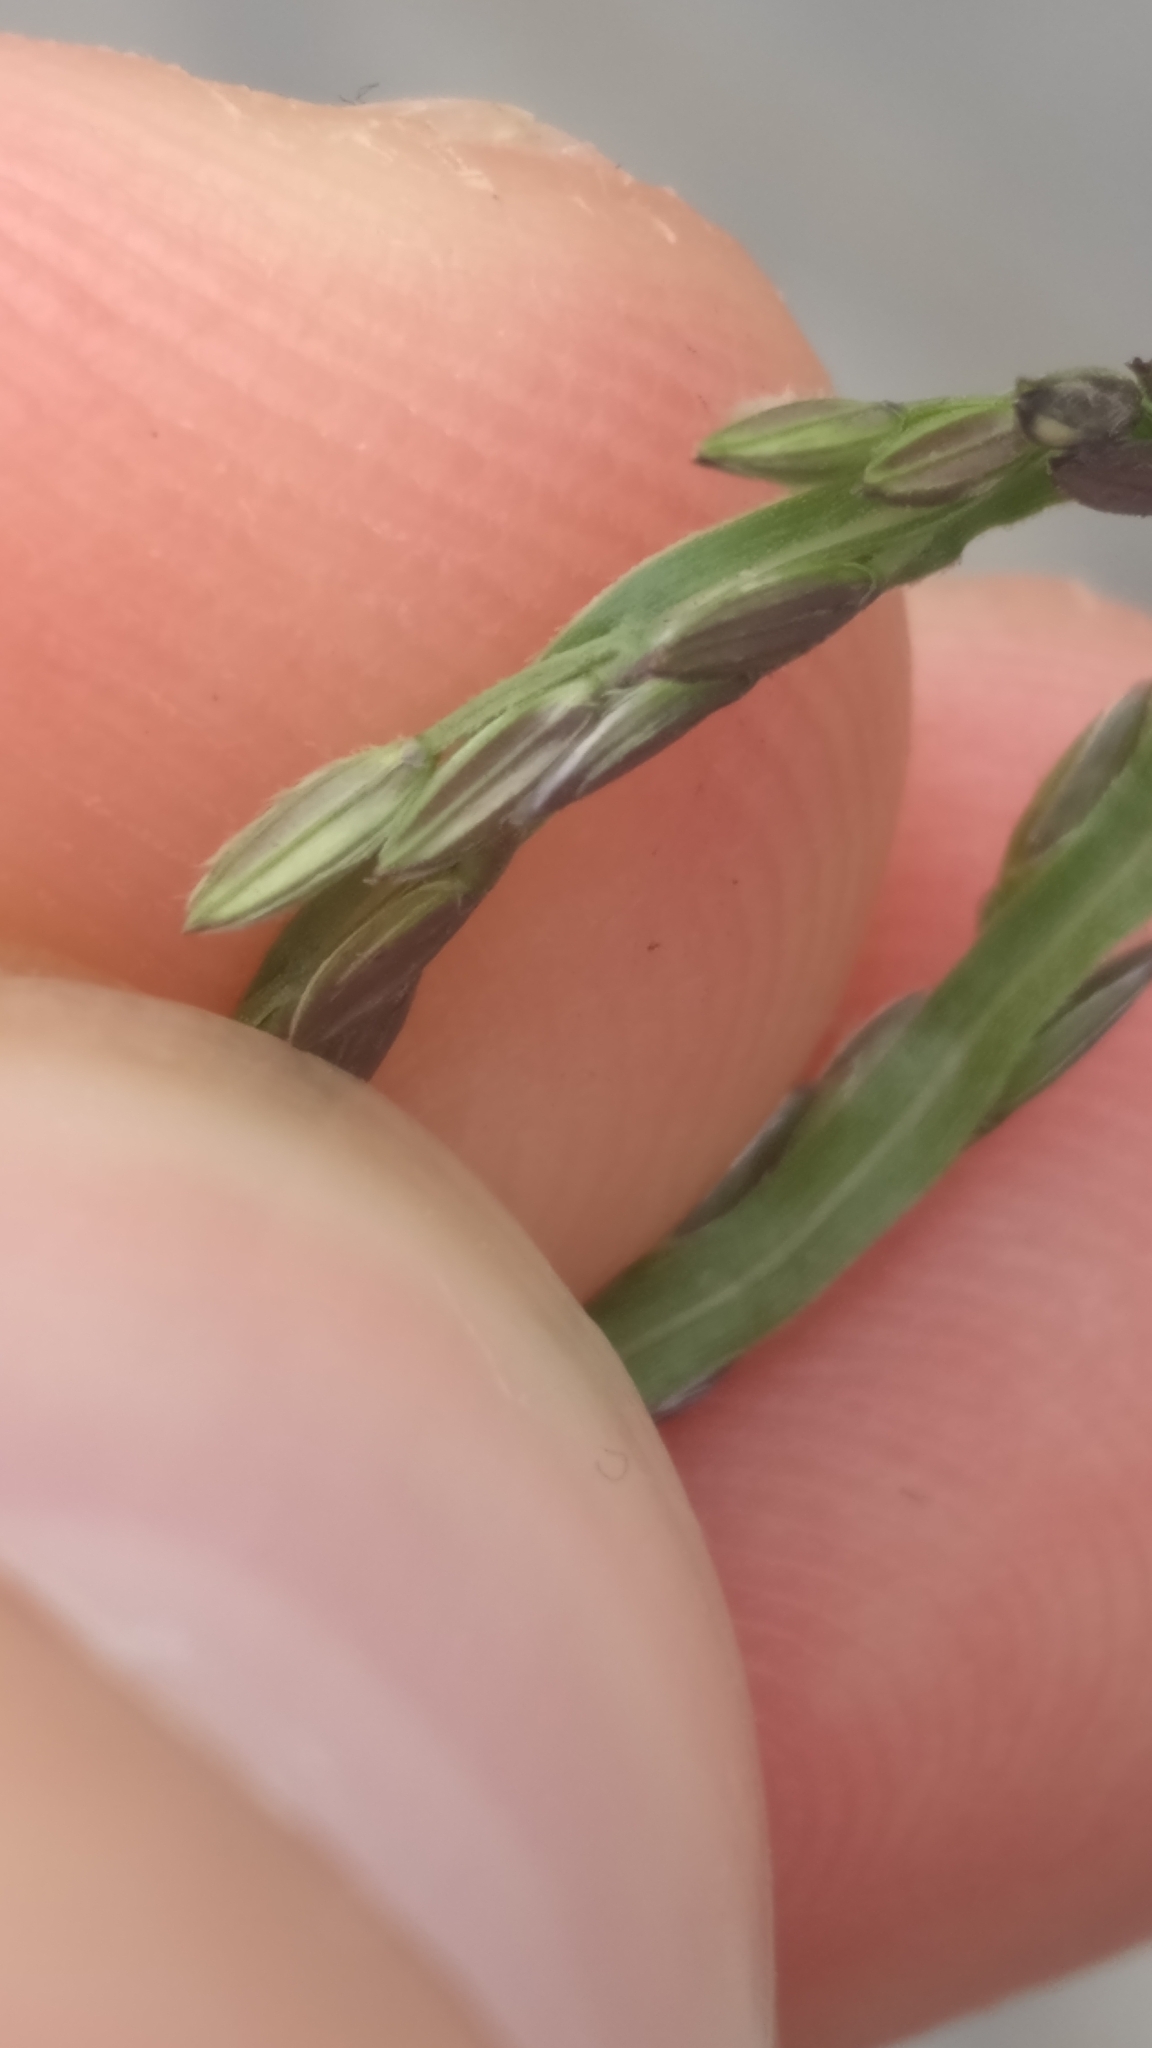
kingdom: Plantae
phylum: Tracheophyta
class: Liliopsida
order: Poales
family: Poaceae
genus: Digitaria
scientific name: Digitaria sanguinalis
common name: Hairy crabgrass
